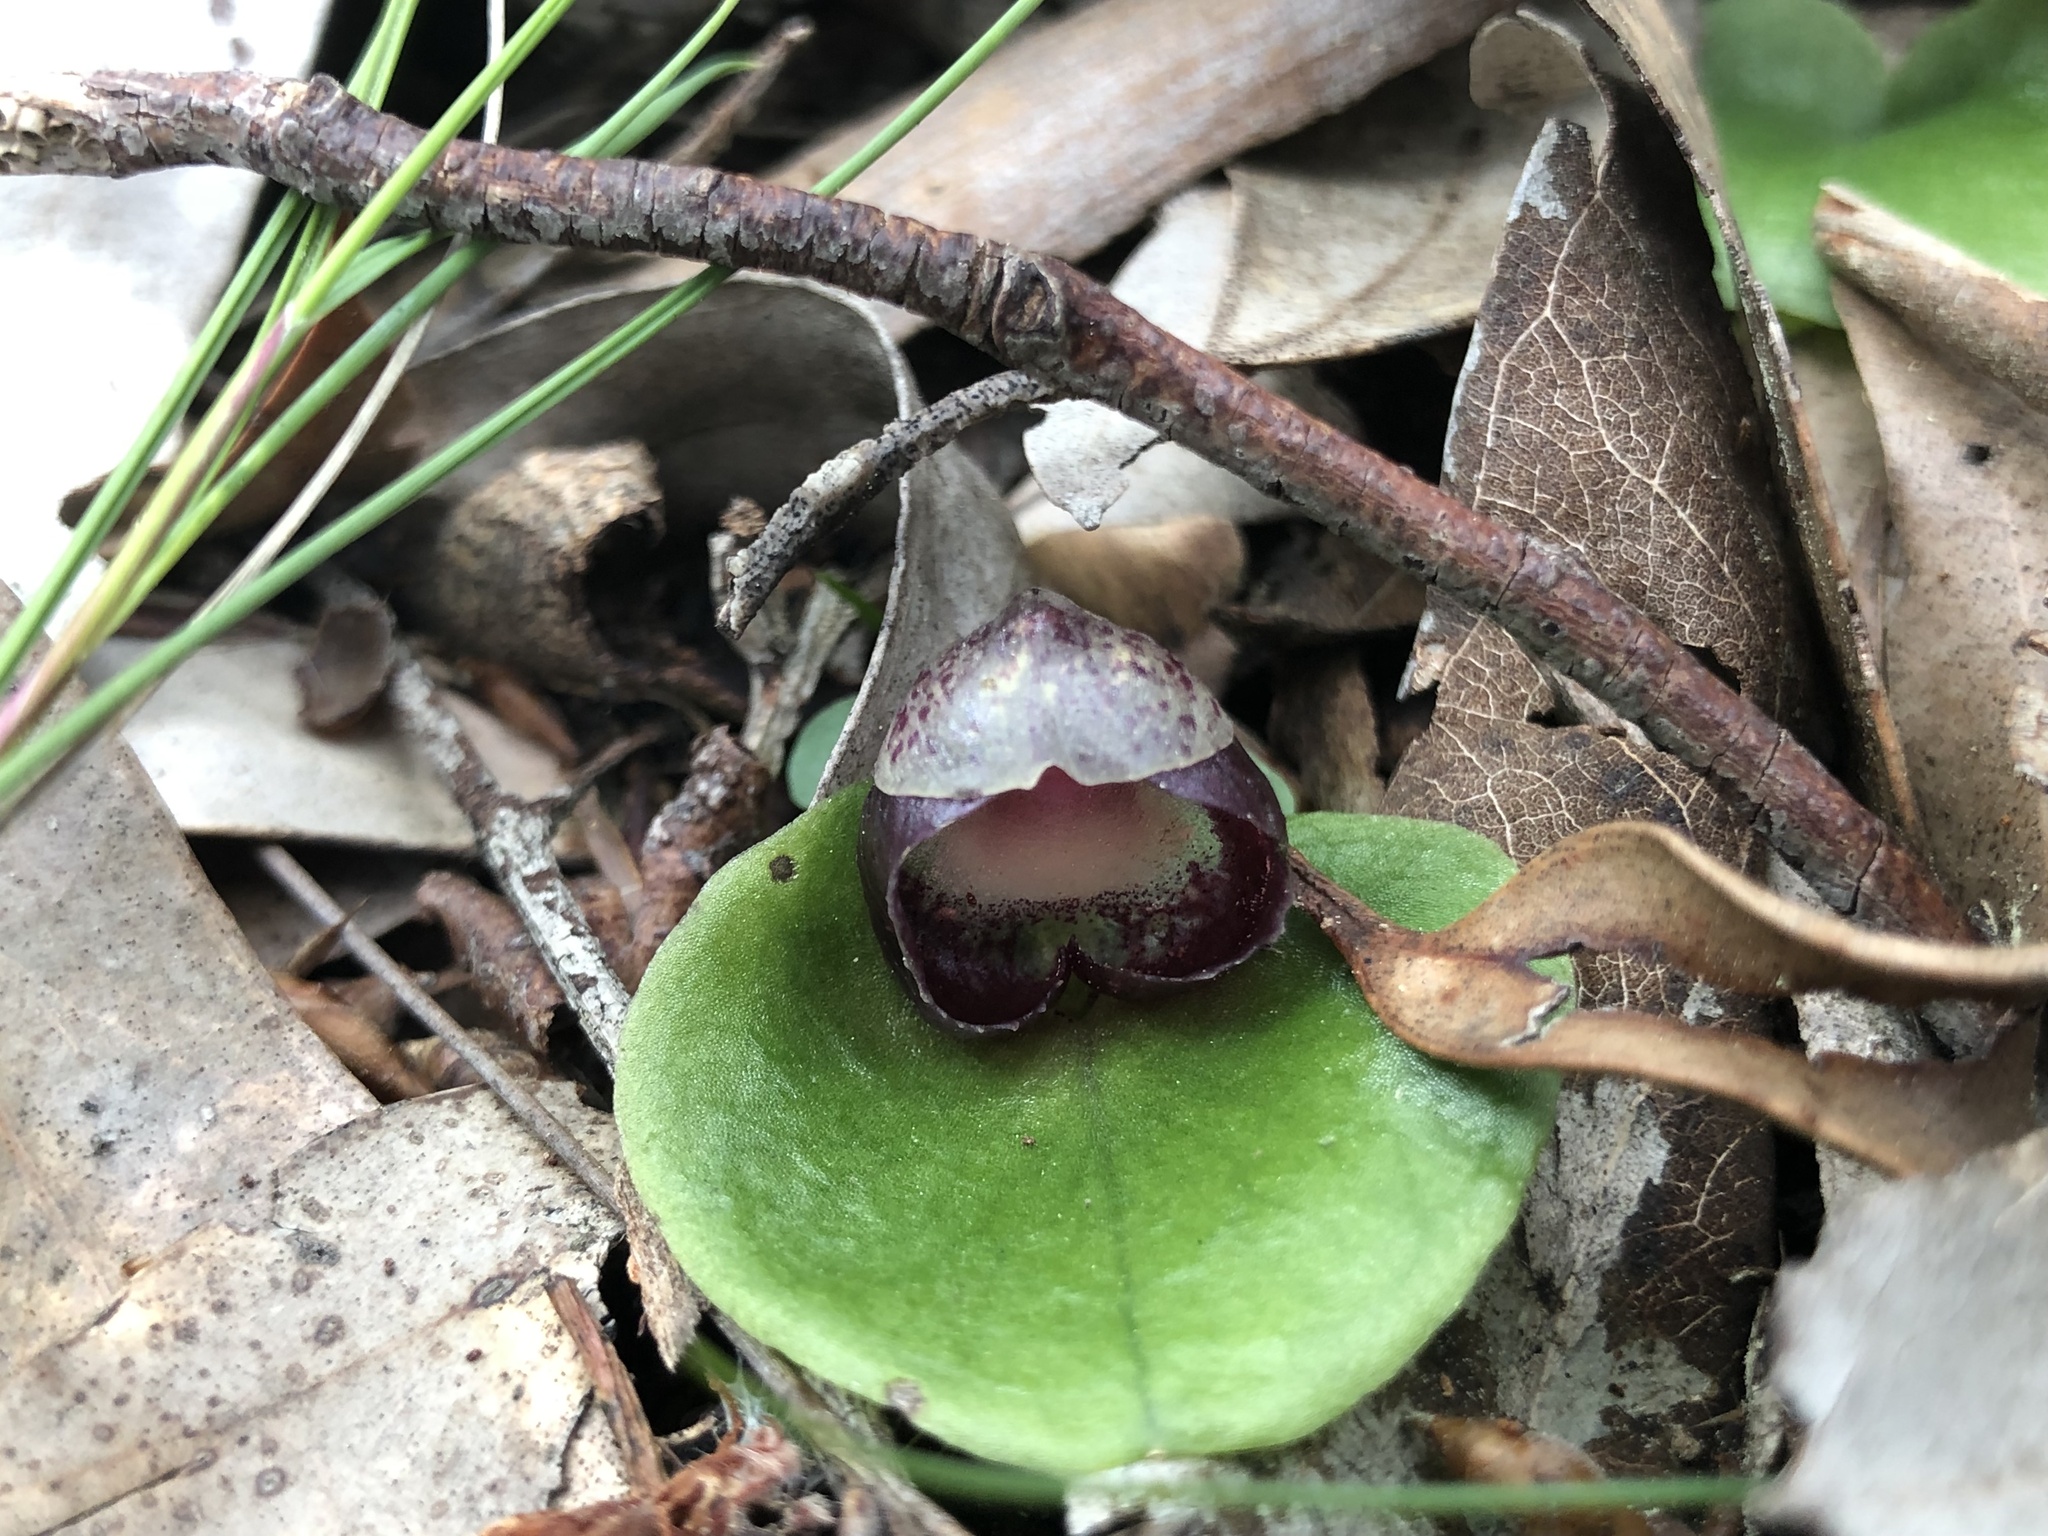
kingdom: Plantae
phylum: Tracheophyta
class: Liliopsida
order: Asparagales
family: Orchidaceae
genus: Corybas
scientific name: Corybas incurvus
